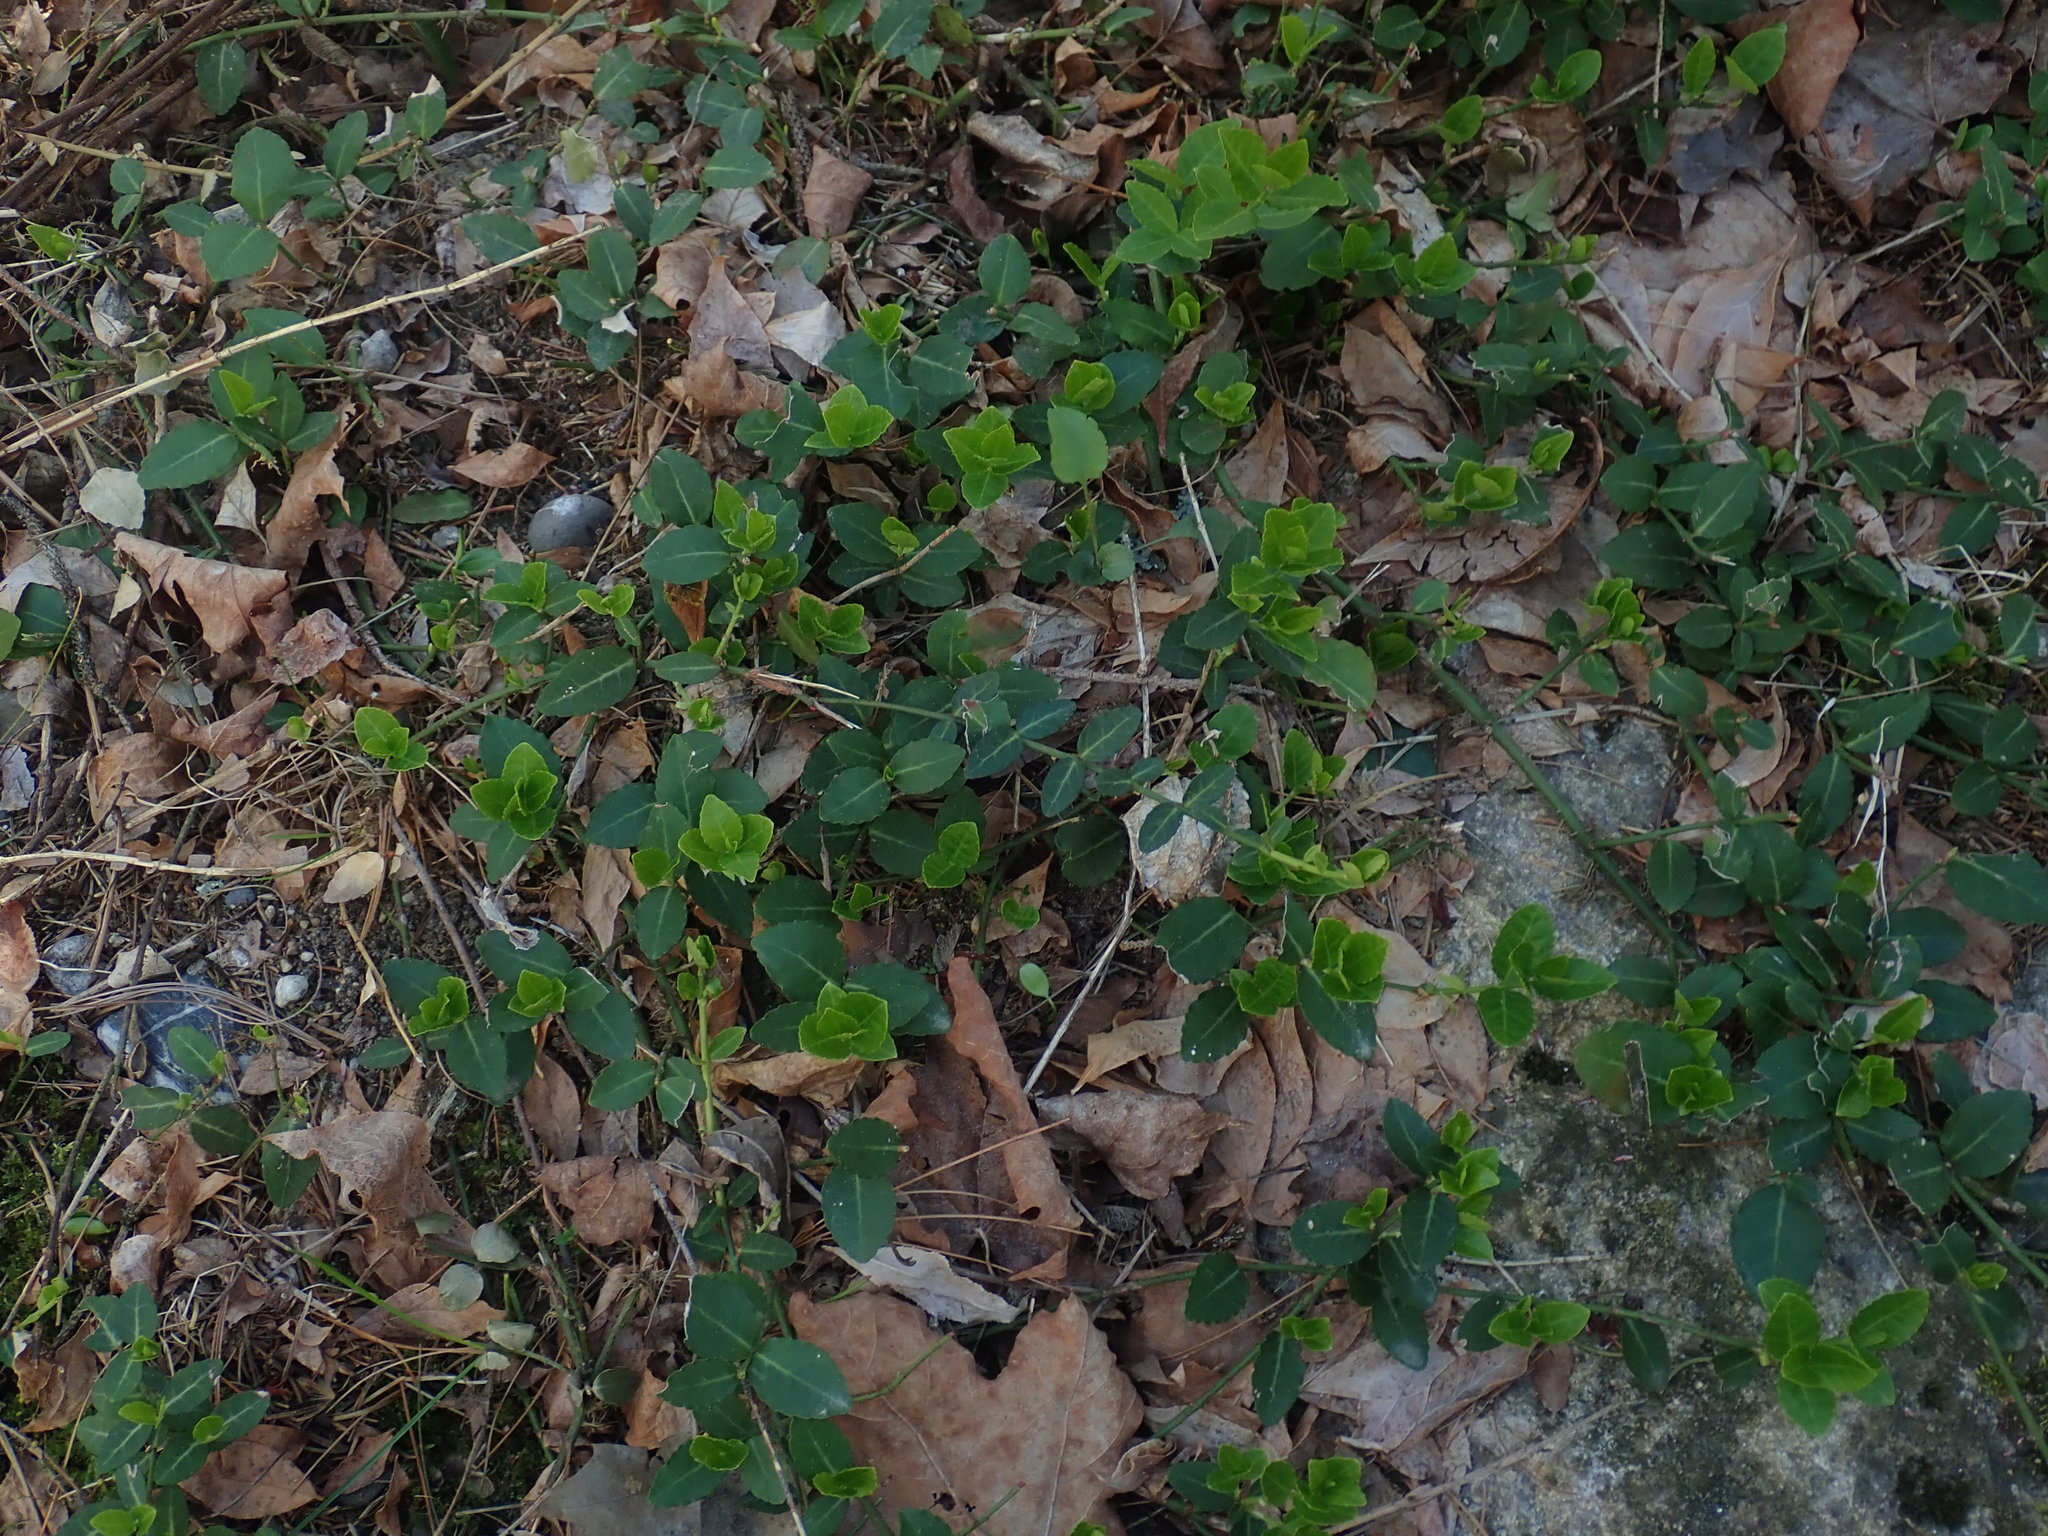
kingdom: Plantae
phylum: Tracheophyta
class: Magnoliopsida
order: Celastrales
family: Celastraceae
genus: Euonymus
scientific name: Euonymus fortunei
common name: Climbing euonymus
